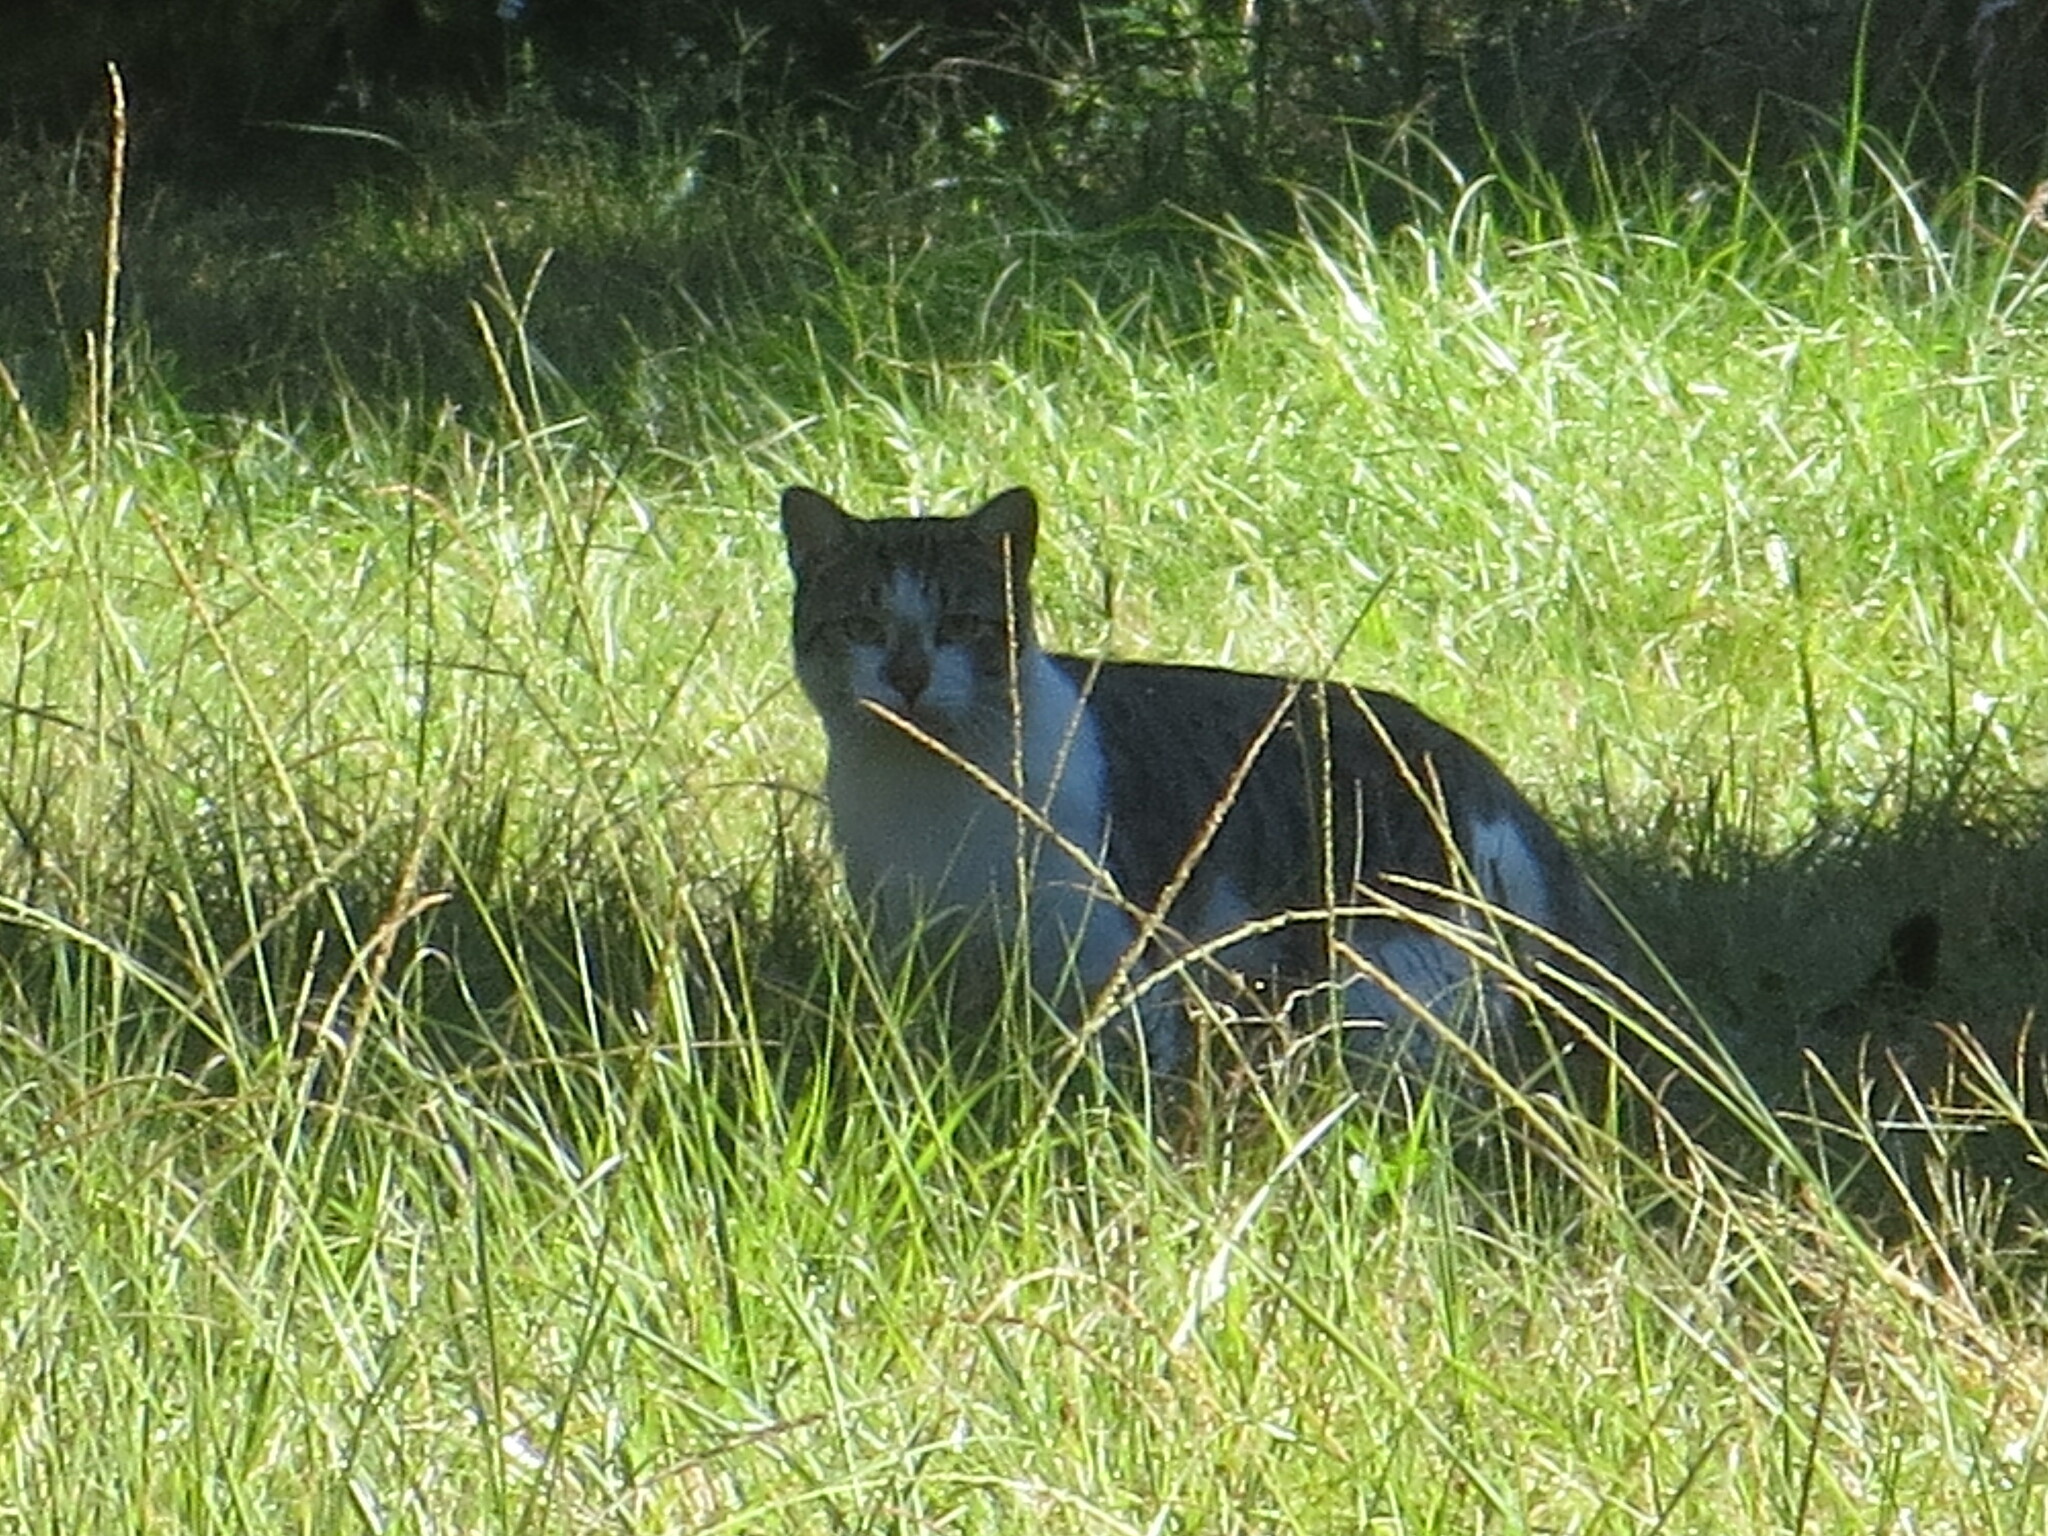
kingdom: Animalia
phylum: Chordata
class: Mammalia
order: Carnivora
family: Felidae
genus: Felis
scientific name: Felis catus
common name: Domestic cat
